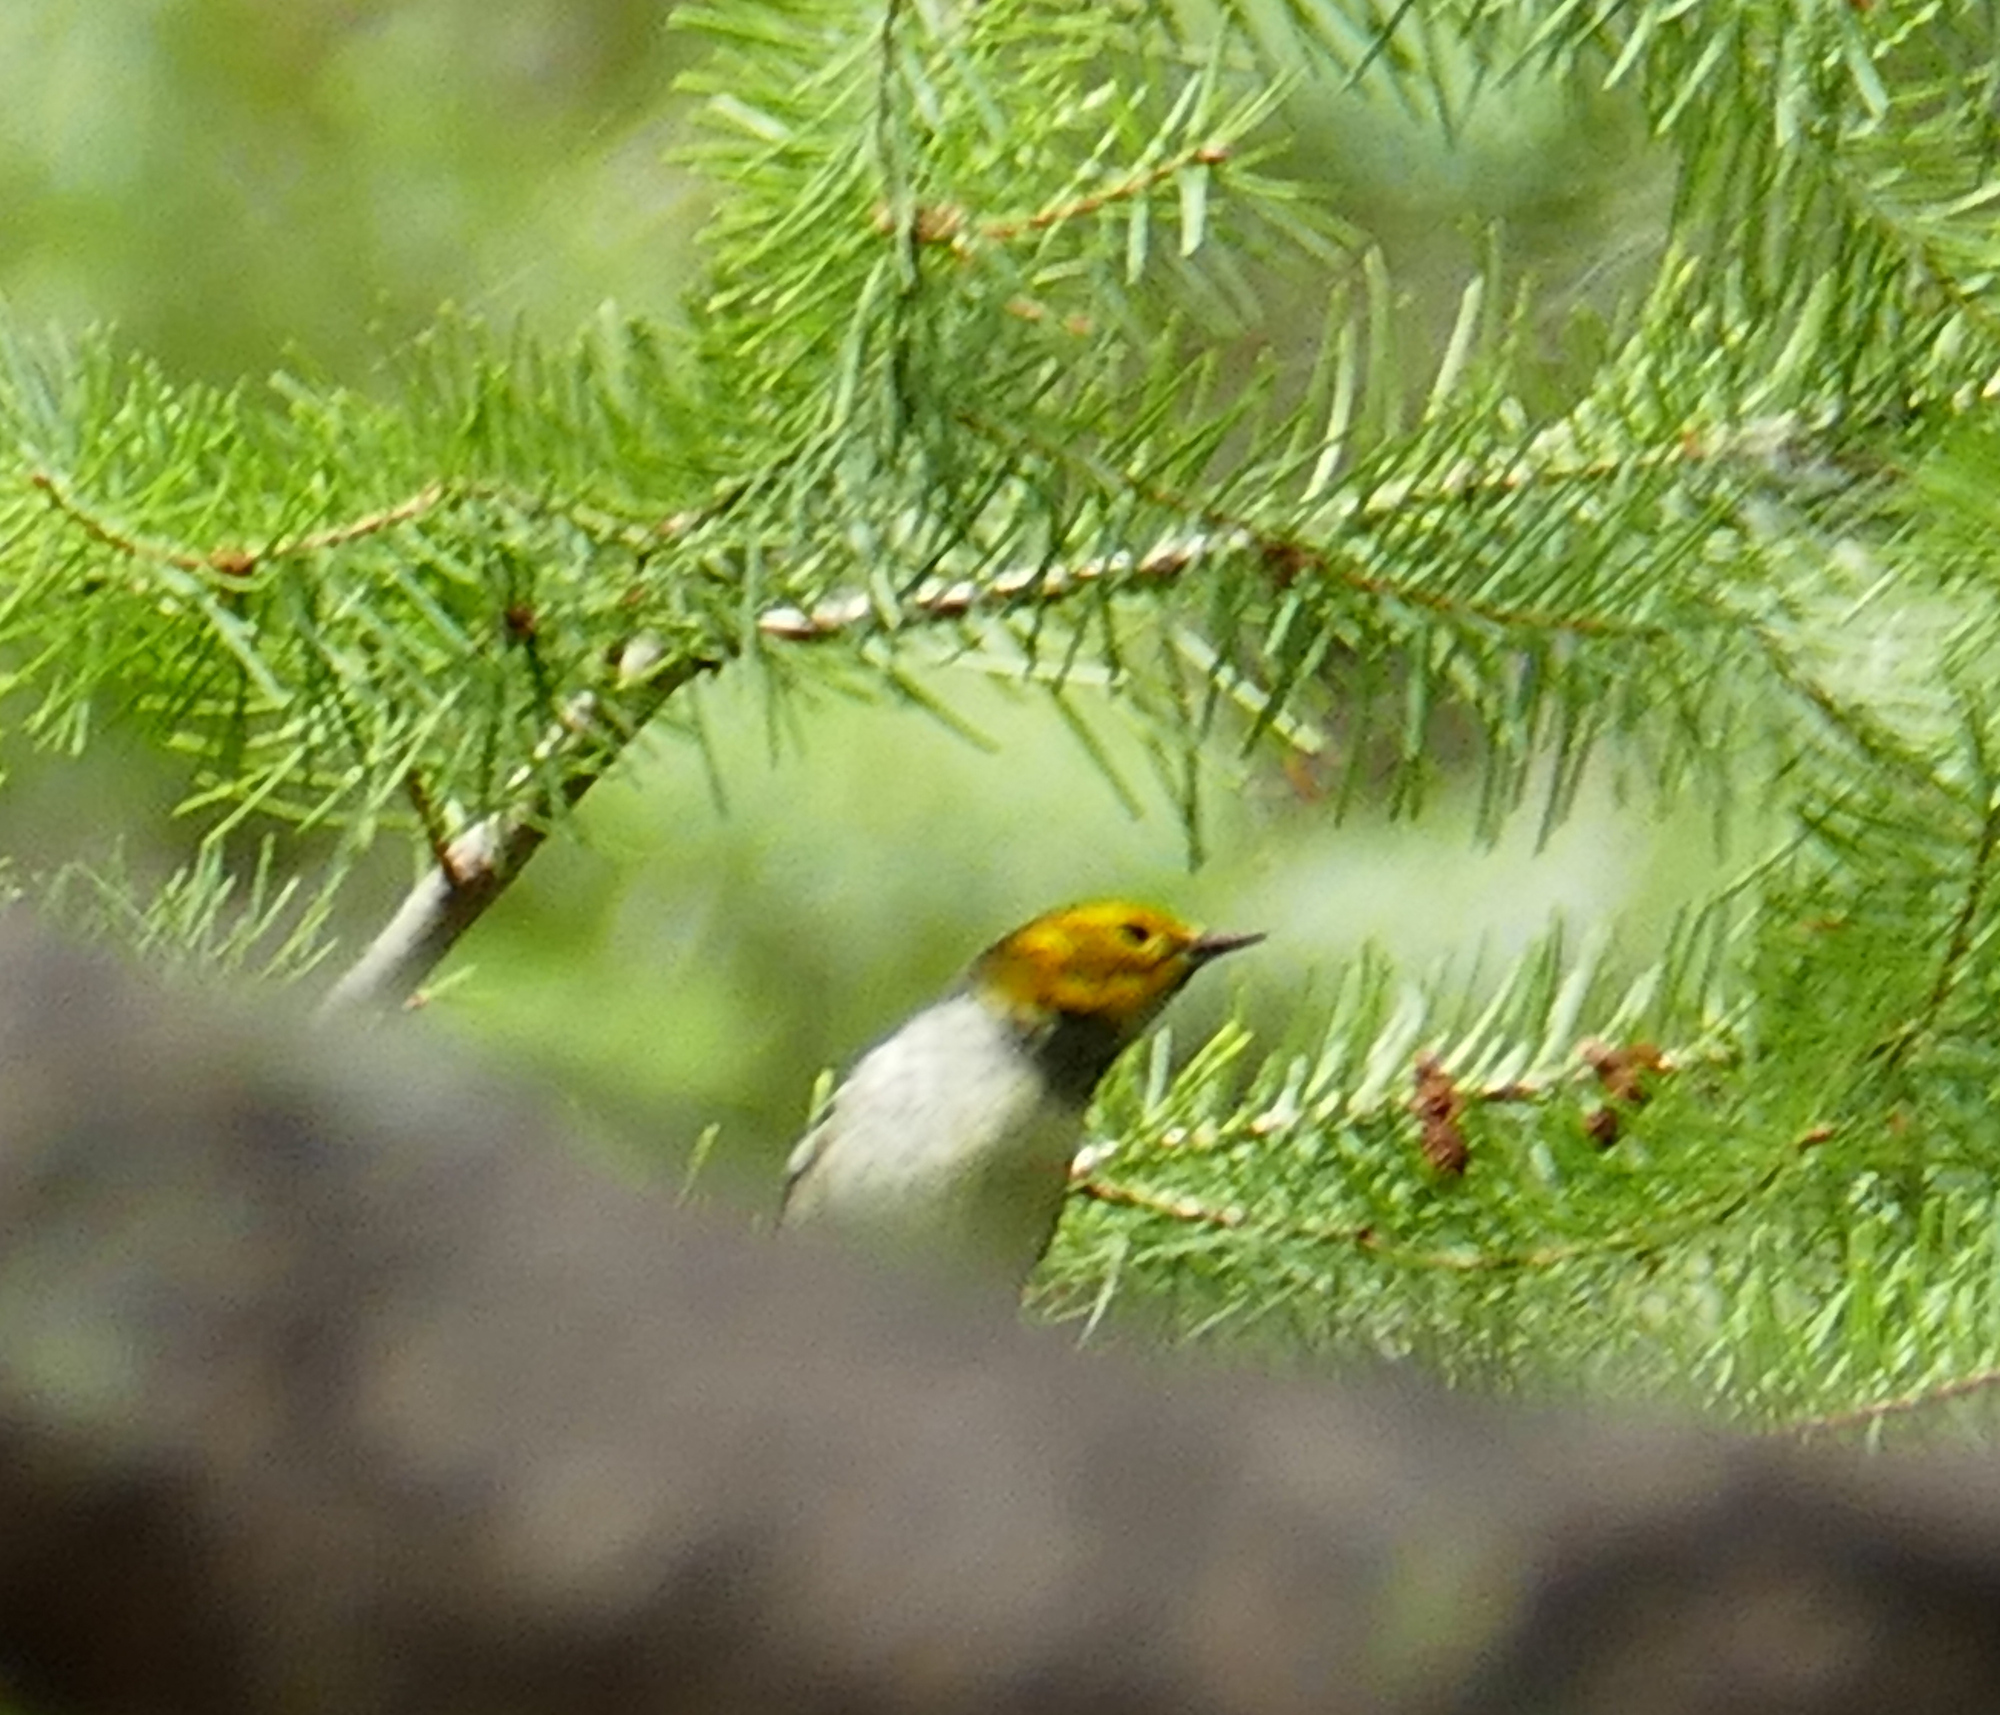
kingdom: Animalia
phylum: Chordata
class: Aves
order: Passeriformes
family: Parulidae
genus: Setophaga
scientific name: Setophaga occidentalis
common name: Hermit warbler
